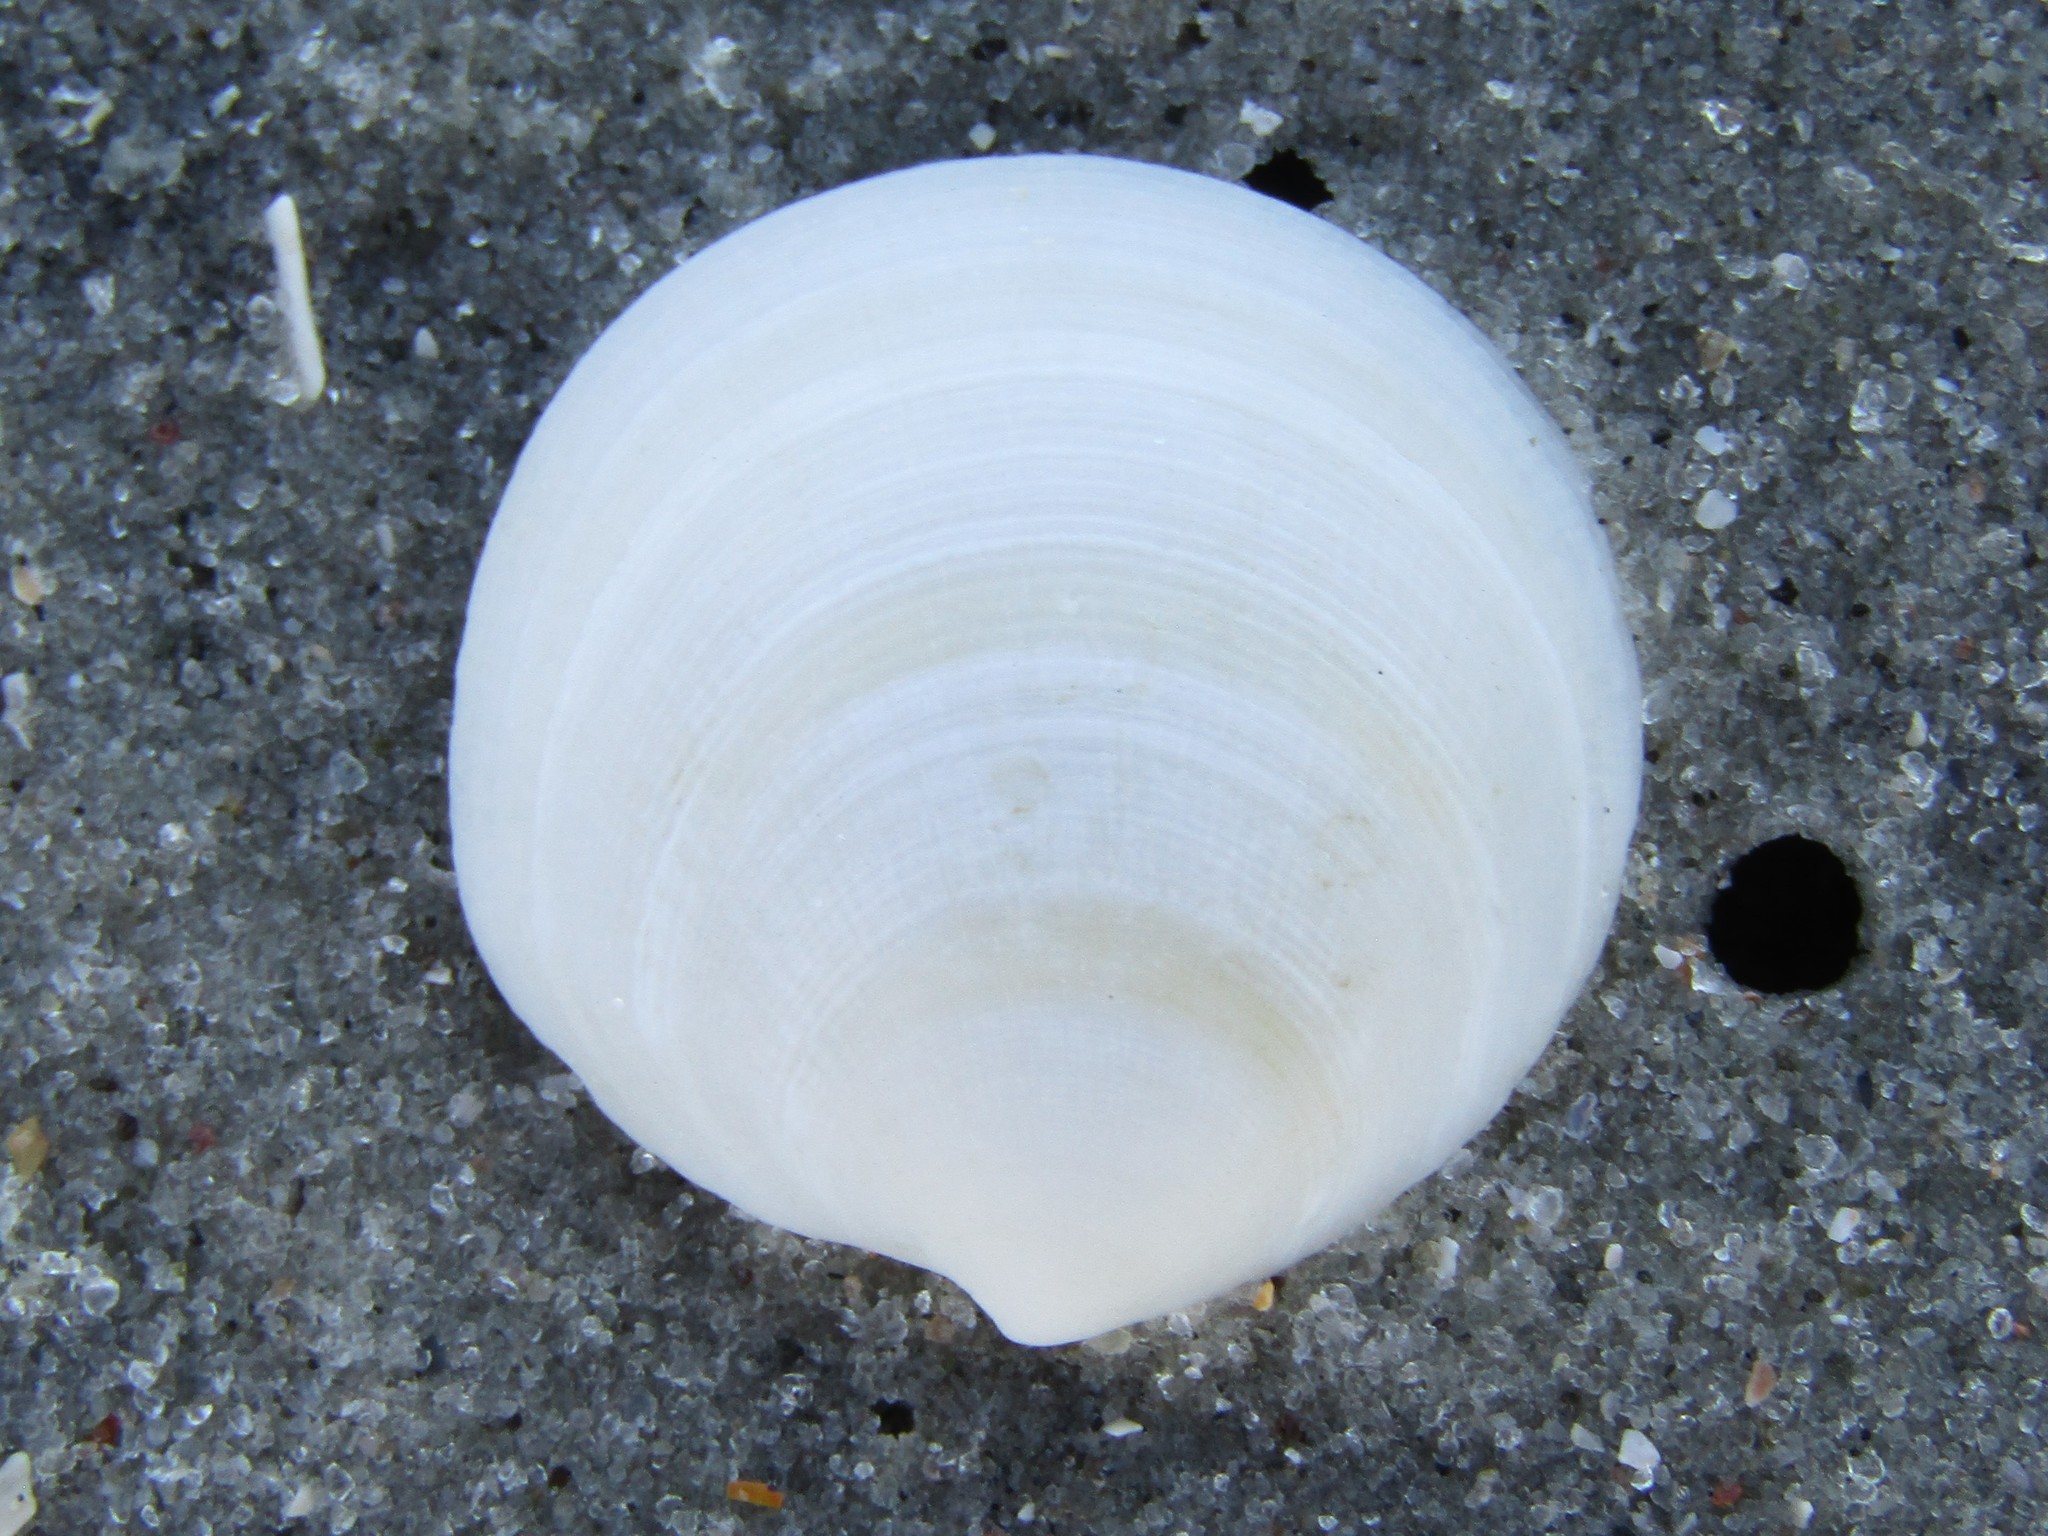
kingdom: Animalia
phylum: Mollusca
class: Bivalvia
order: Lucinida
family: Lucinidae
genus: Callucina
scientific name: Callucina keenae
